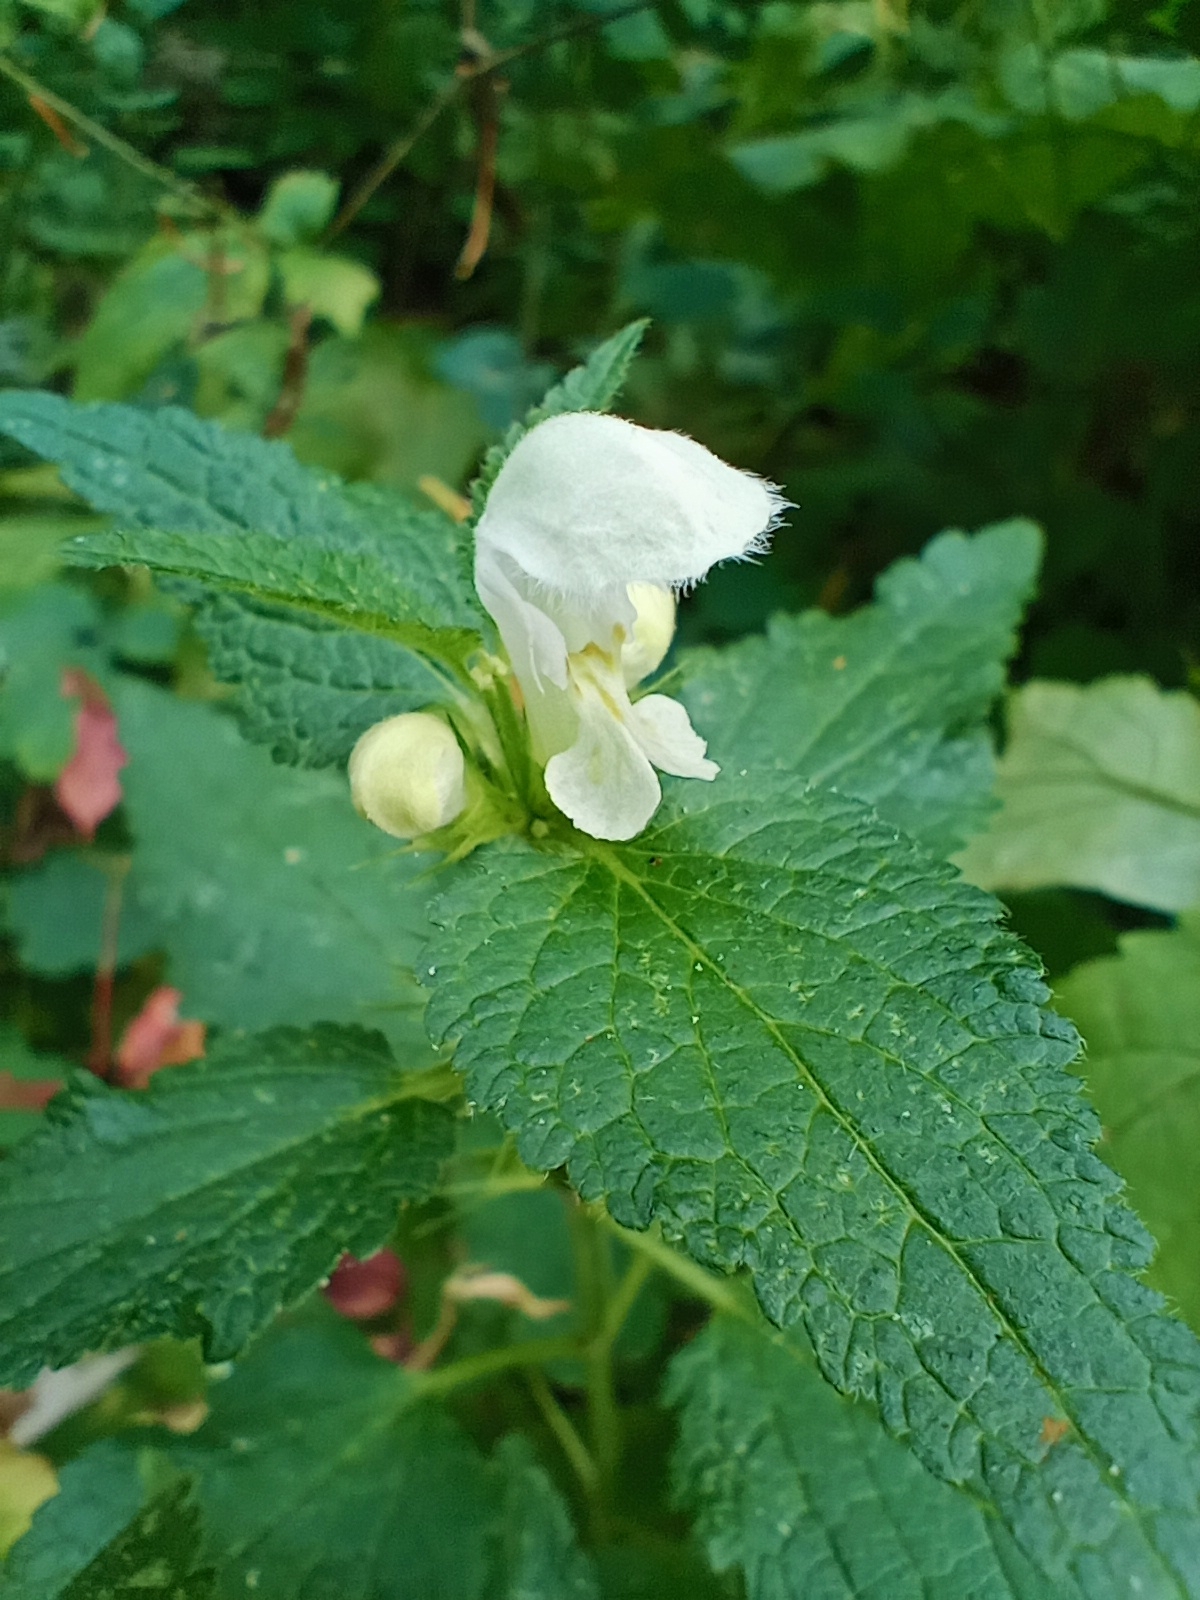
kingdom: Plantae
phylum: Tracheophyta
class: Magnoliopsida
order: Lamiales
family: Lamiaceae
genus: Lamium
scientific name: Lamium album
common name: White dead-nettle
